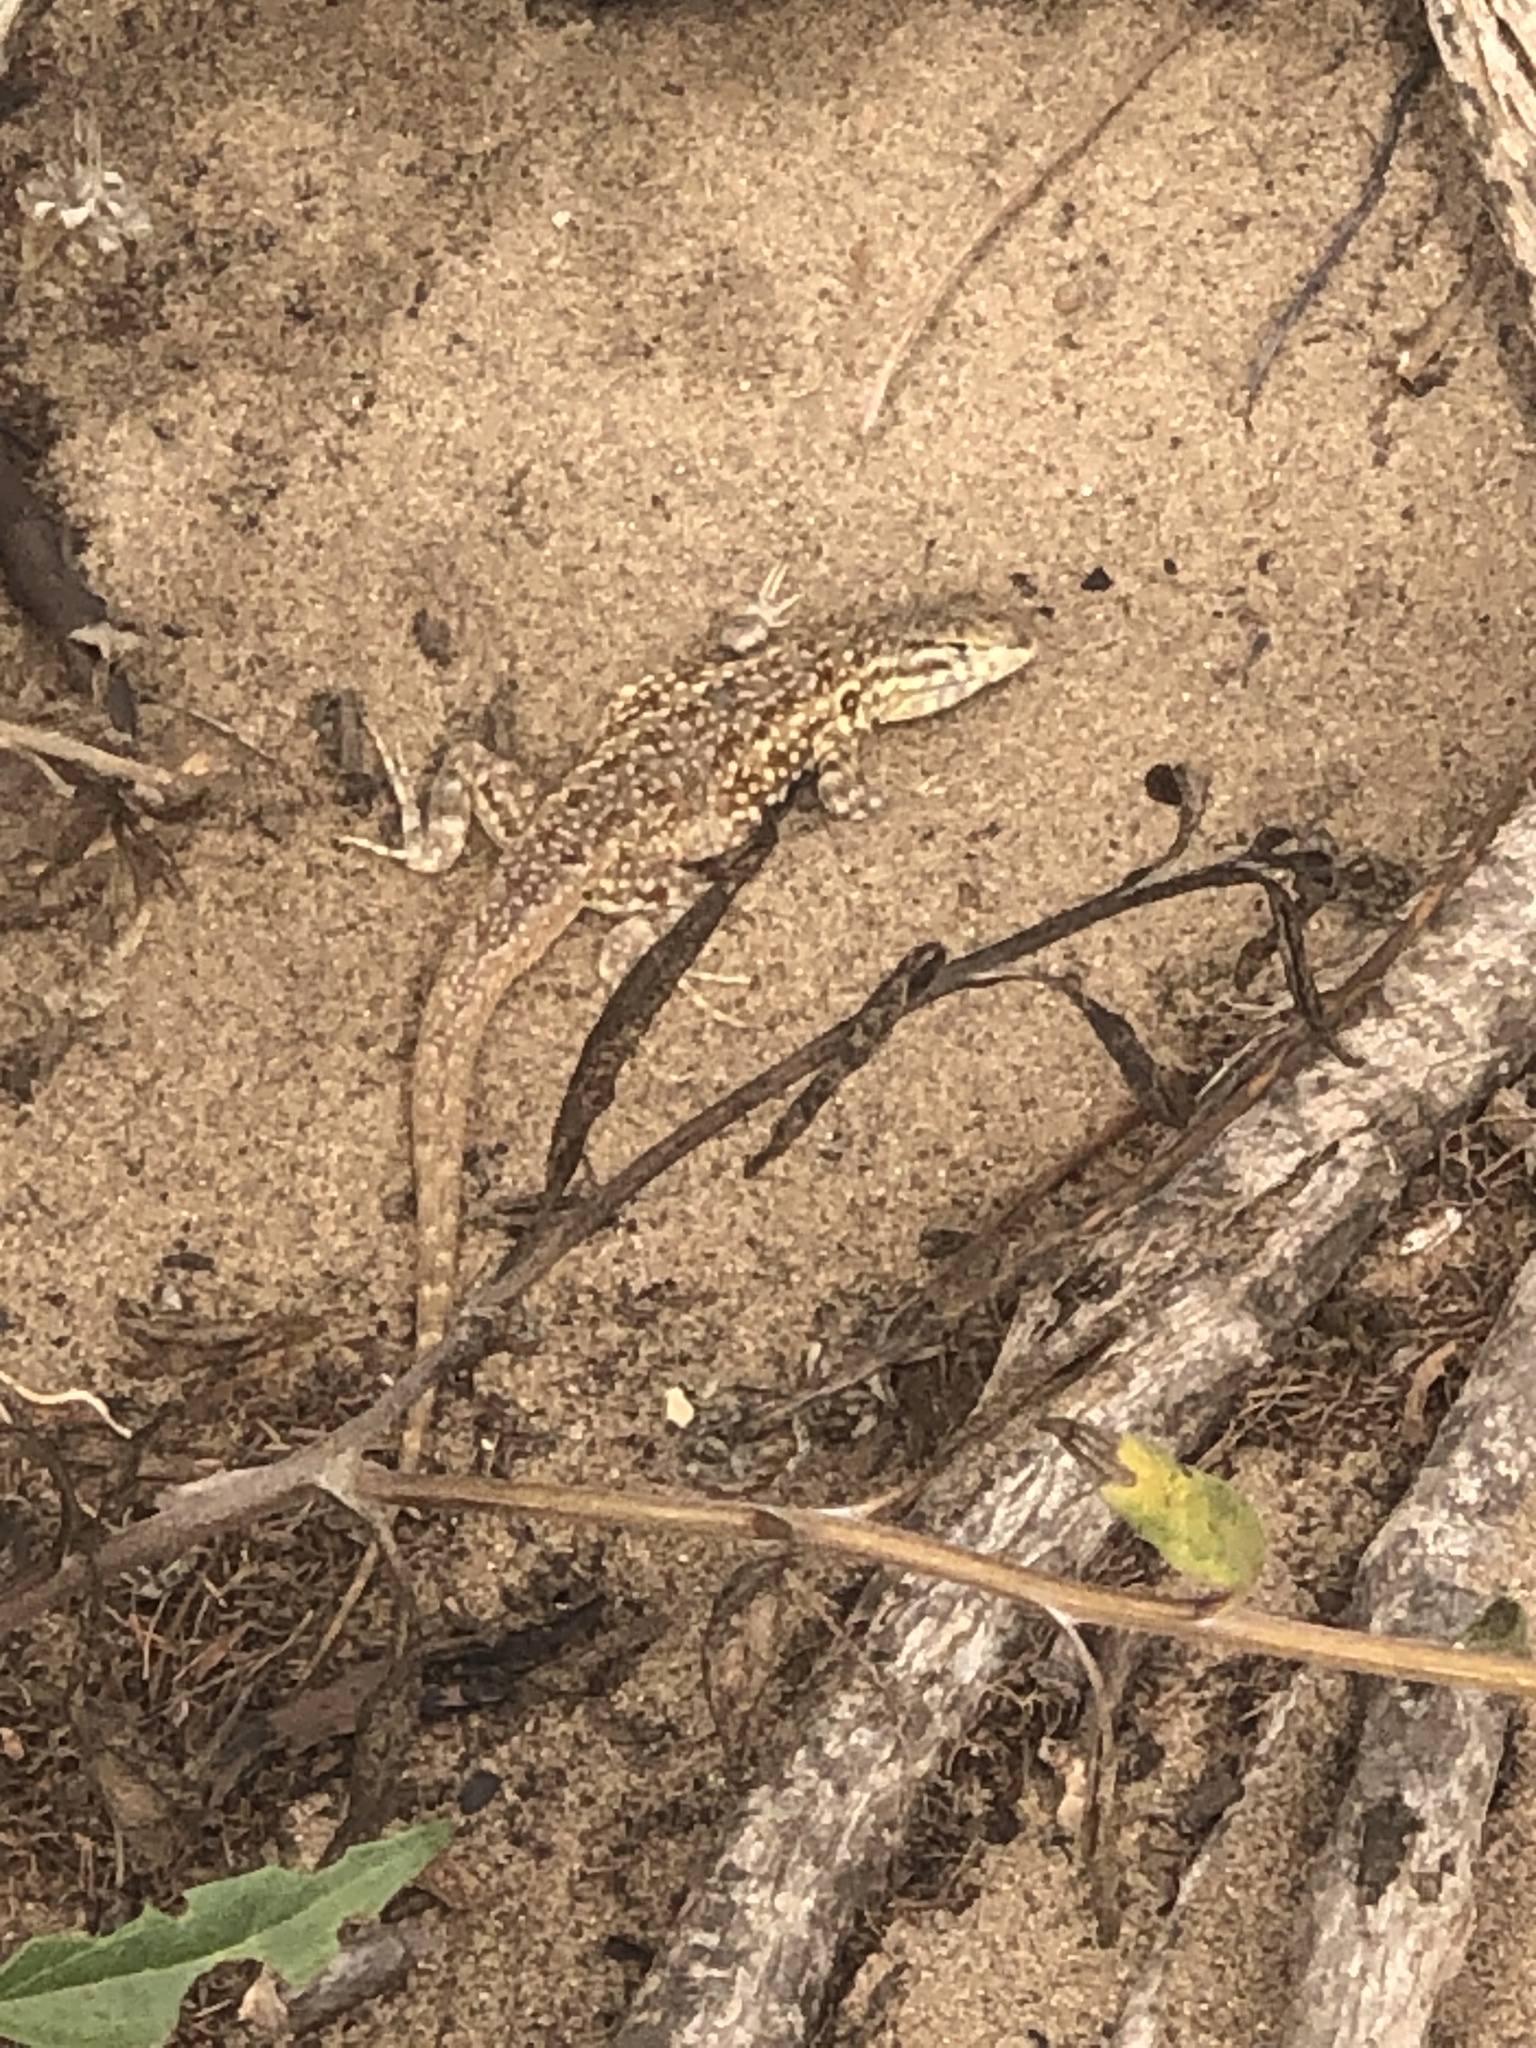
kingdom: Animalia
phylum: Chordata
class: Squamata
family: Phrynosomatidae
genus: Uta
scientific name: Uta stansburiana
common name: Side-blotched lizard
